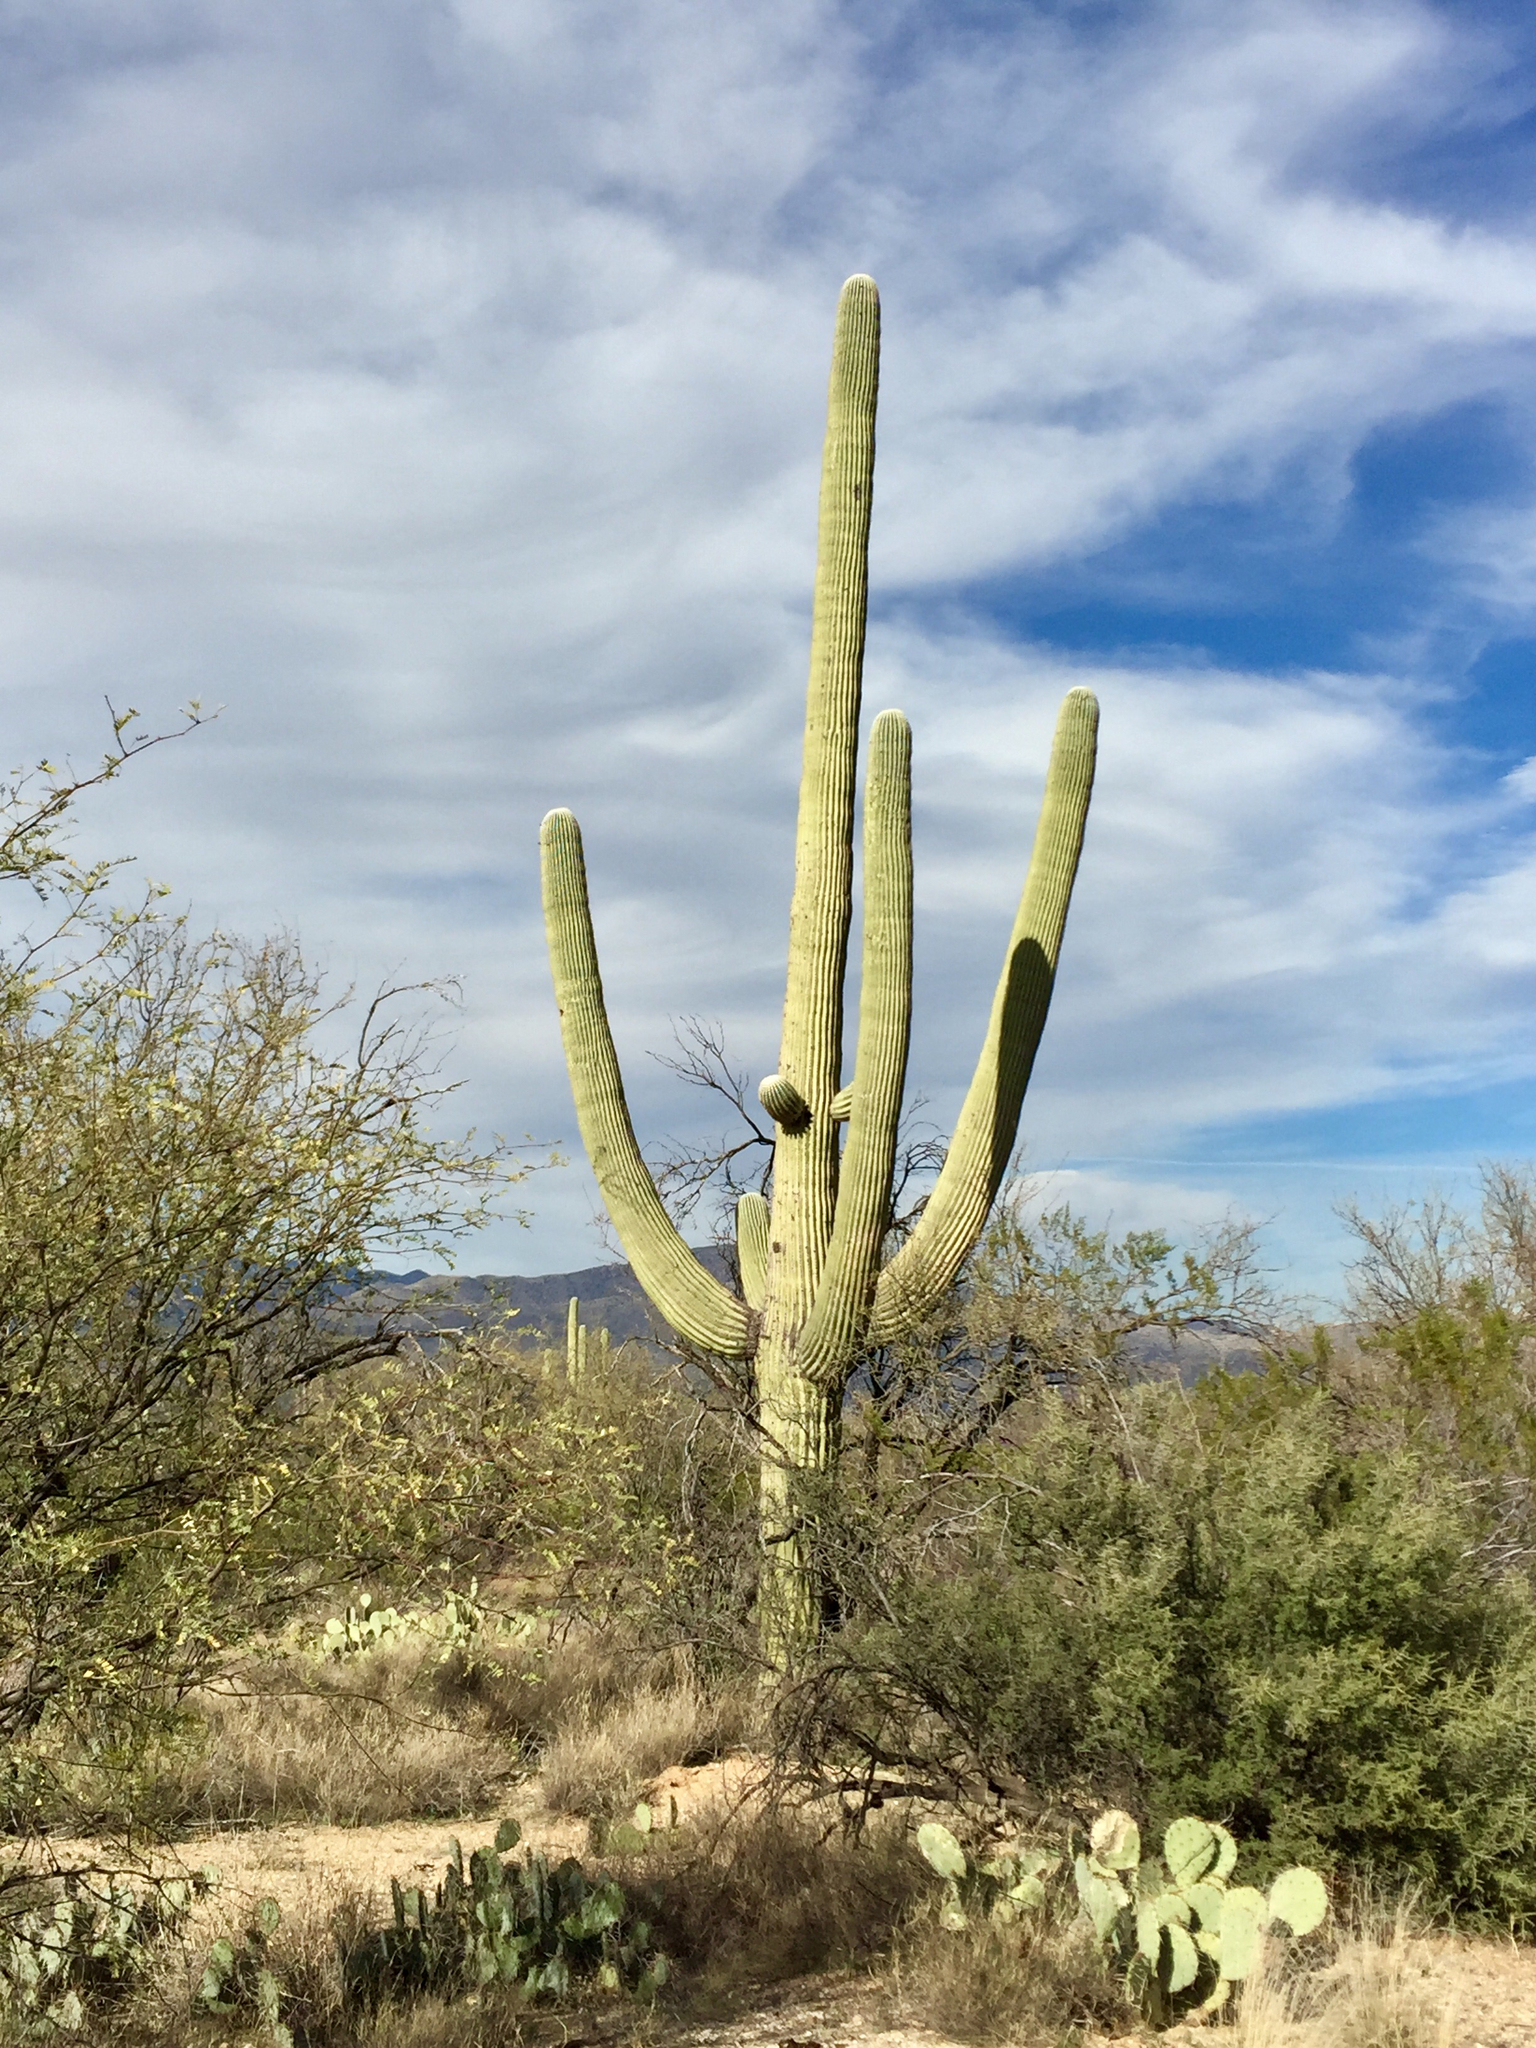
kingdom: Plantae
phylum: Tracheophyta
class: Magnoliopsida
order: Caryophyllales
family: Cactaceae
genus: Carnegiea
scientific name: Carnegiea gigantea
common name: Saguaro
